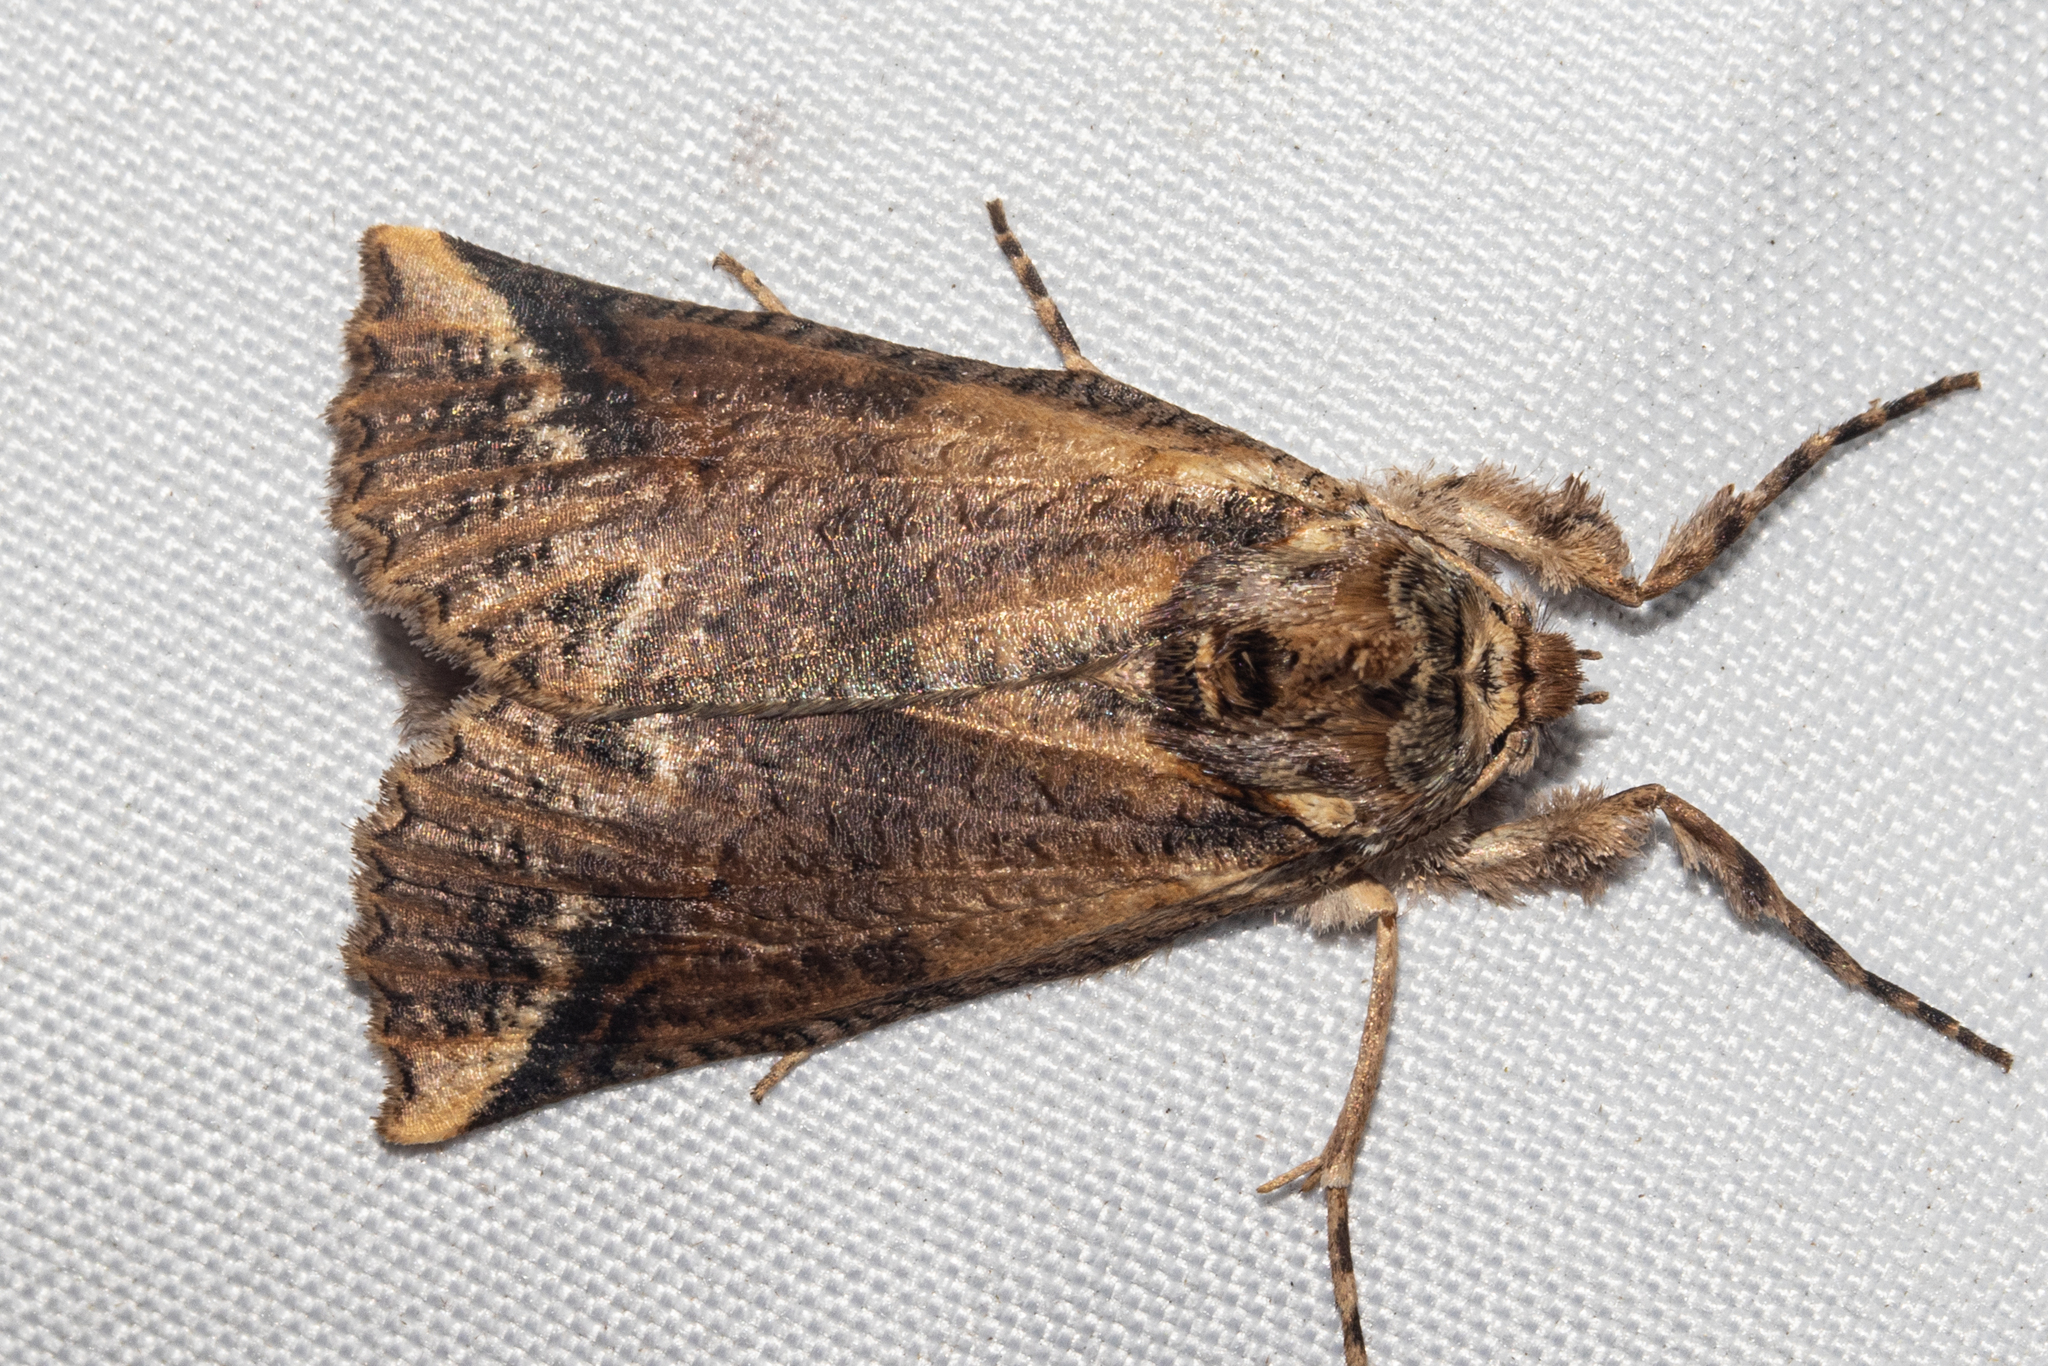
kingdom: Animalia
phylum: Arthropoda
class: Insecta
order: Lepidoptera
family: Geometridae
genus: Declana
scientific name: Declana
